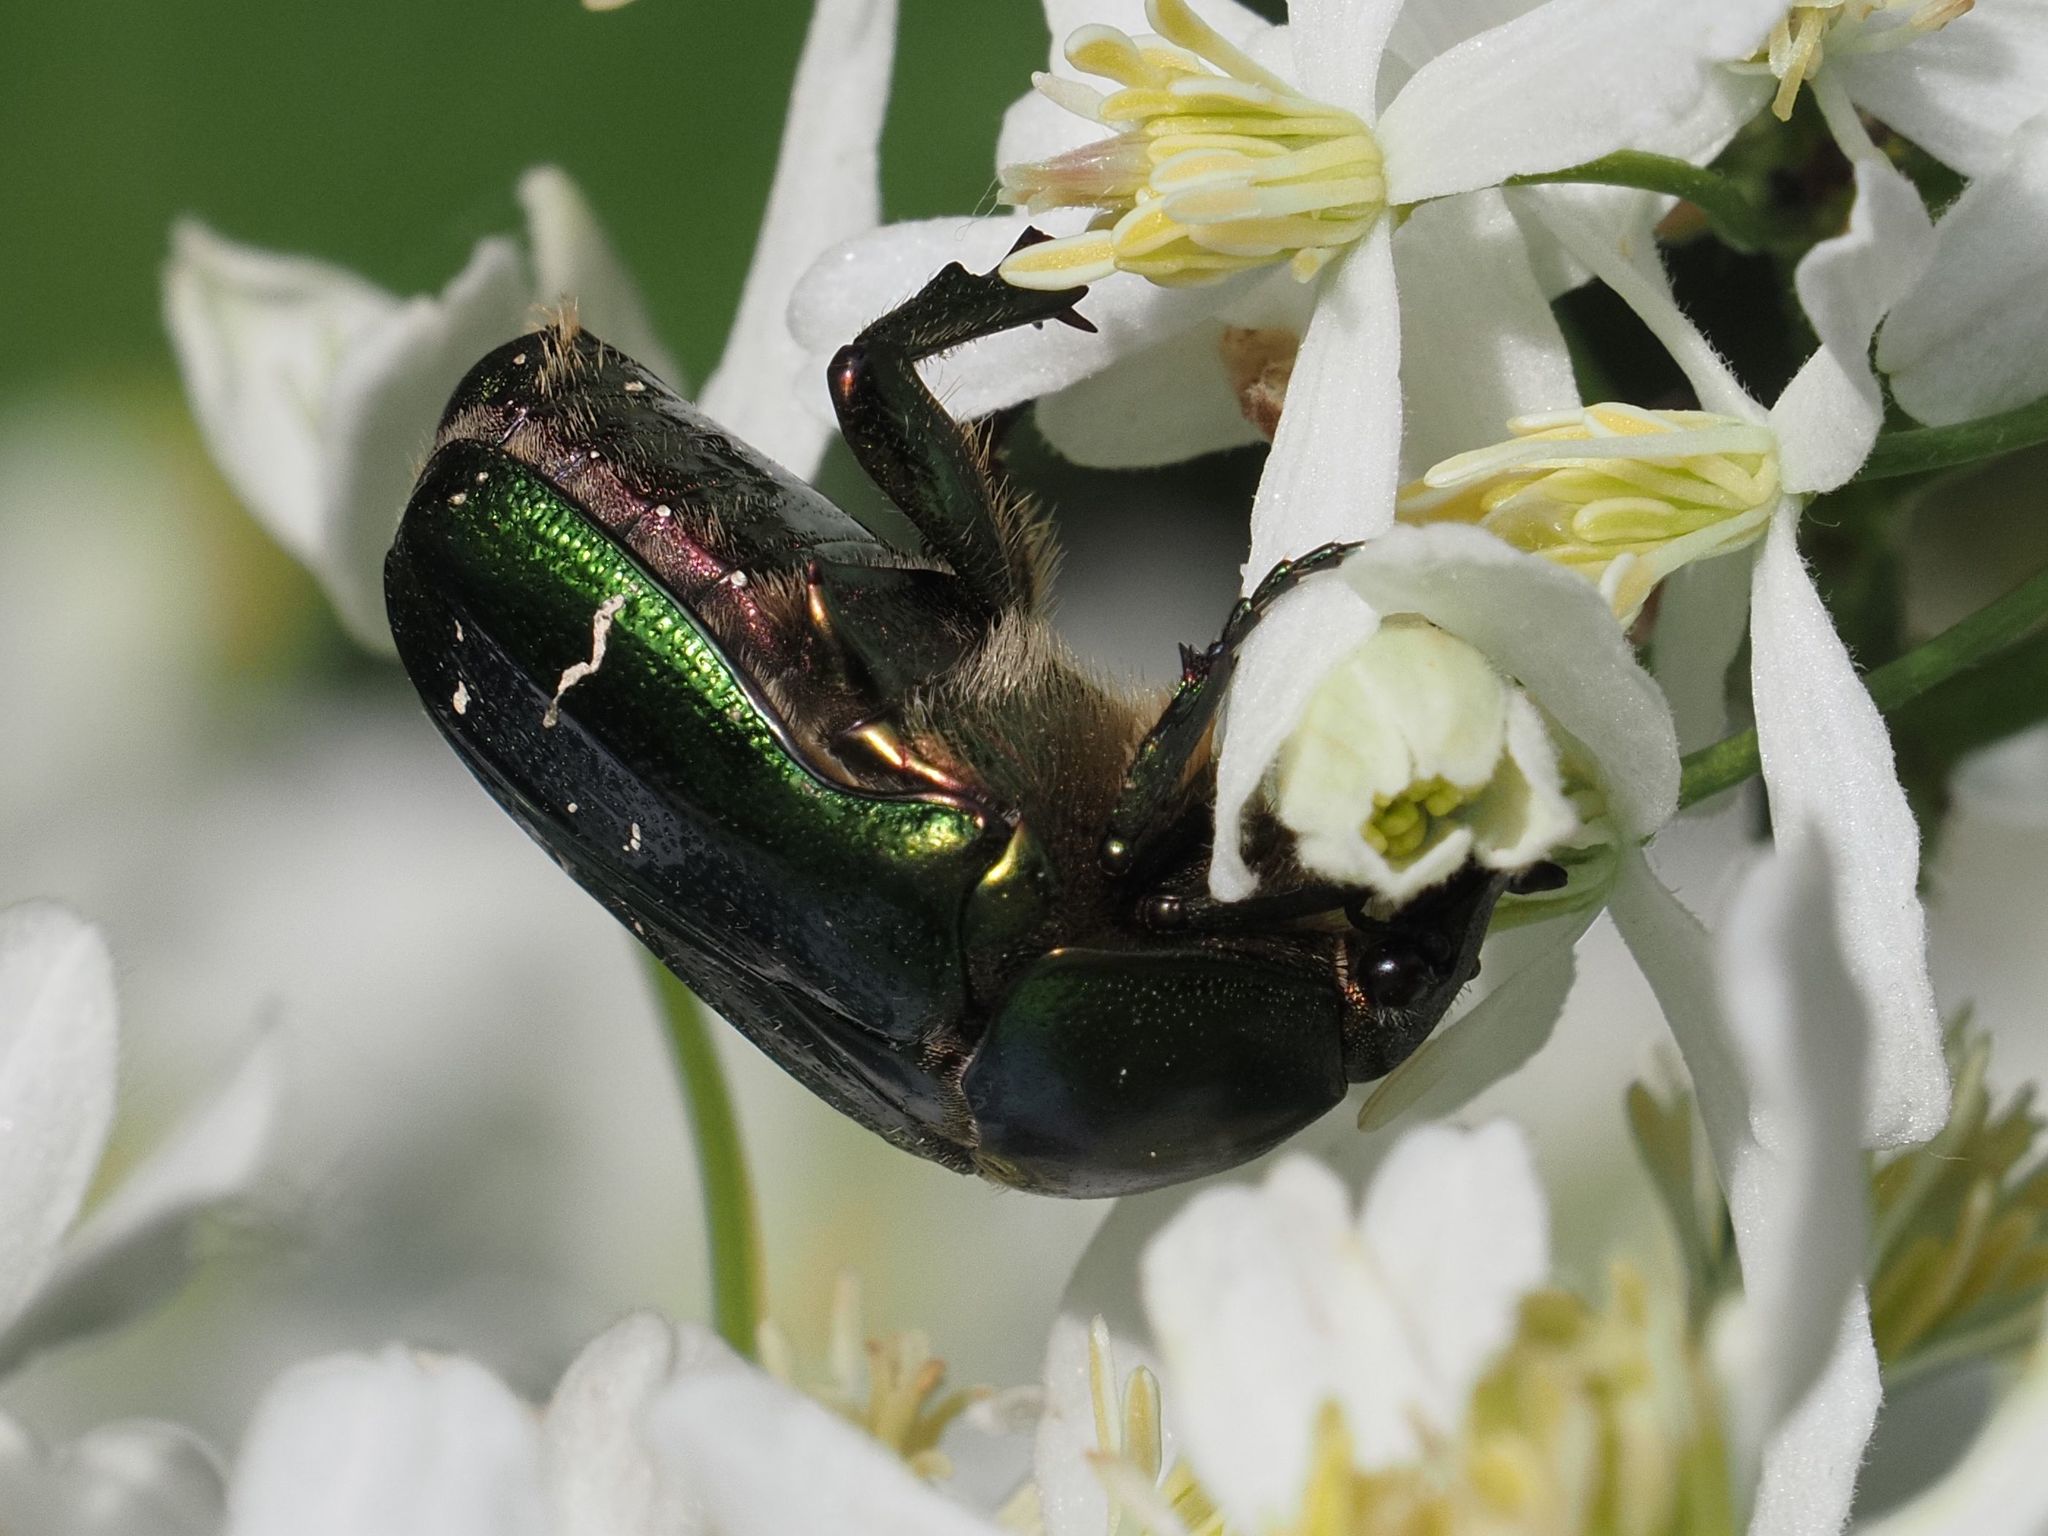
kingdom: Animalia
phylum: Arthropoda
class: Insecta
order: Coleoptera
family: Scarabaeidae
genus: Cetonia
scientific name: Cetonia aurata
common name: Rose chafer
